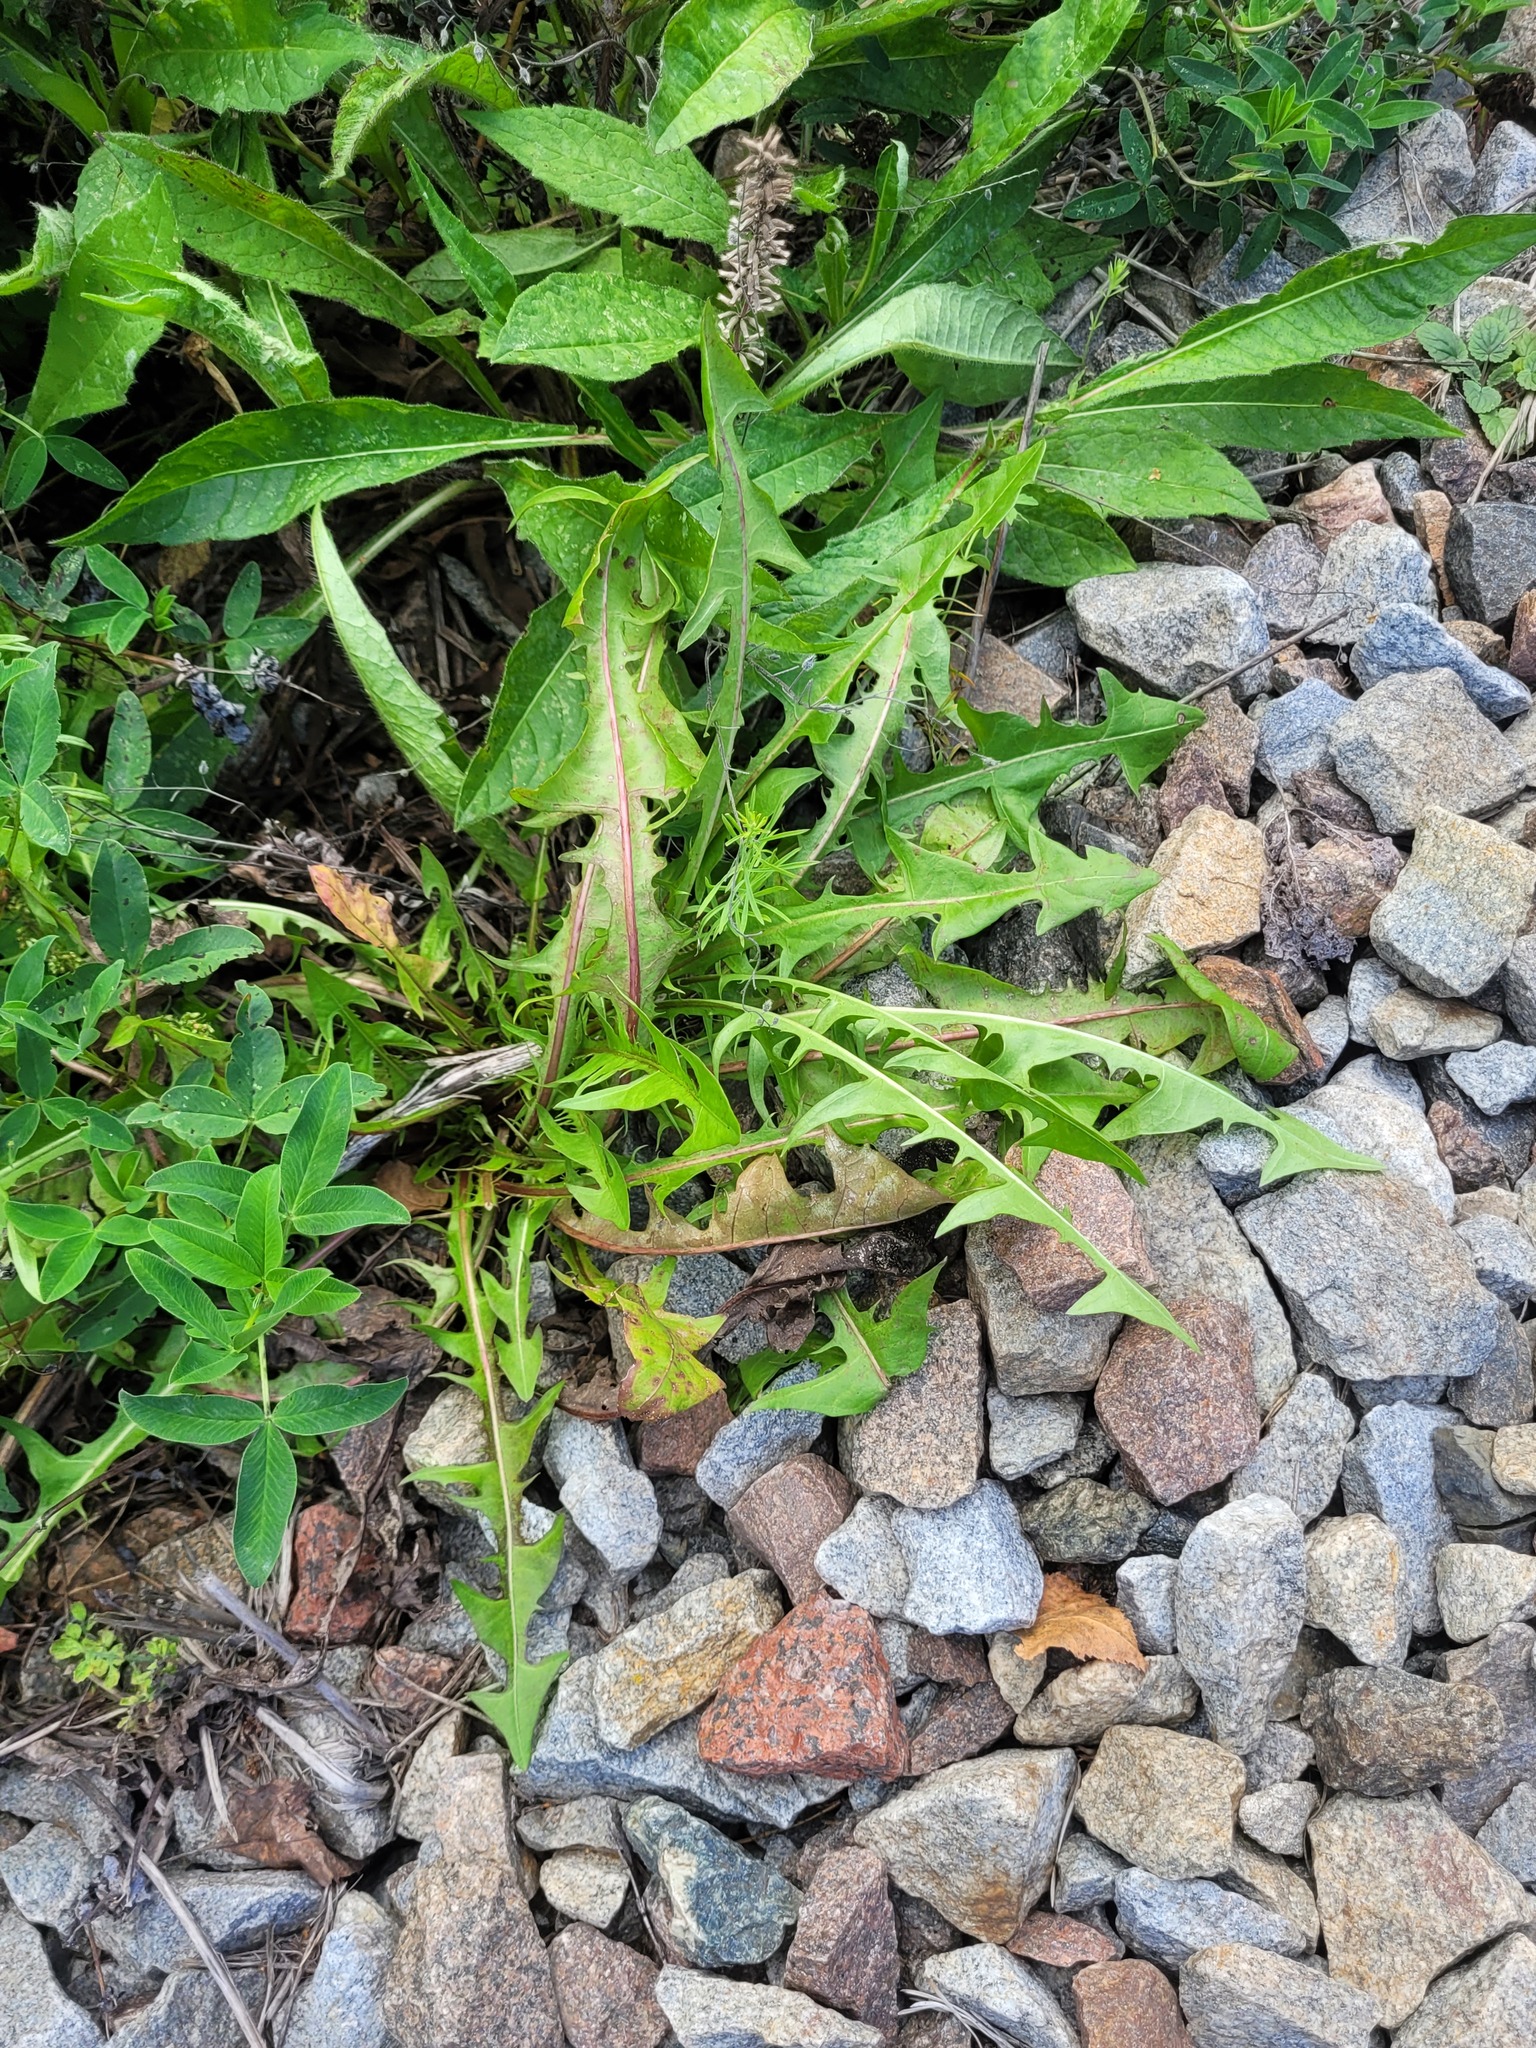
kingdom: Plantae
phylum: Tracheophyta
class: Magnoliopsida
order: Asterales
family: Asteraceae
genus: Taraxacum
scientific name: Taraxacum officinale
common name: Common dandelion
